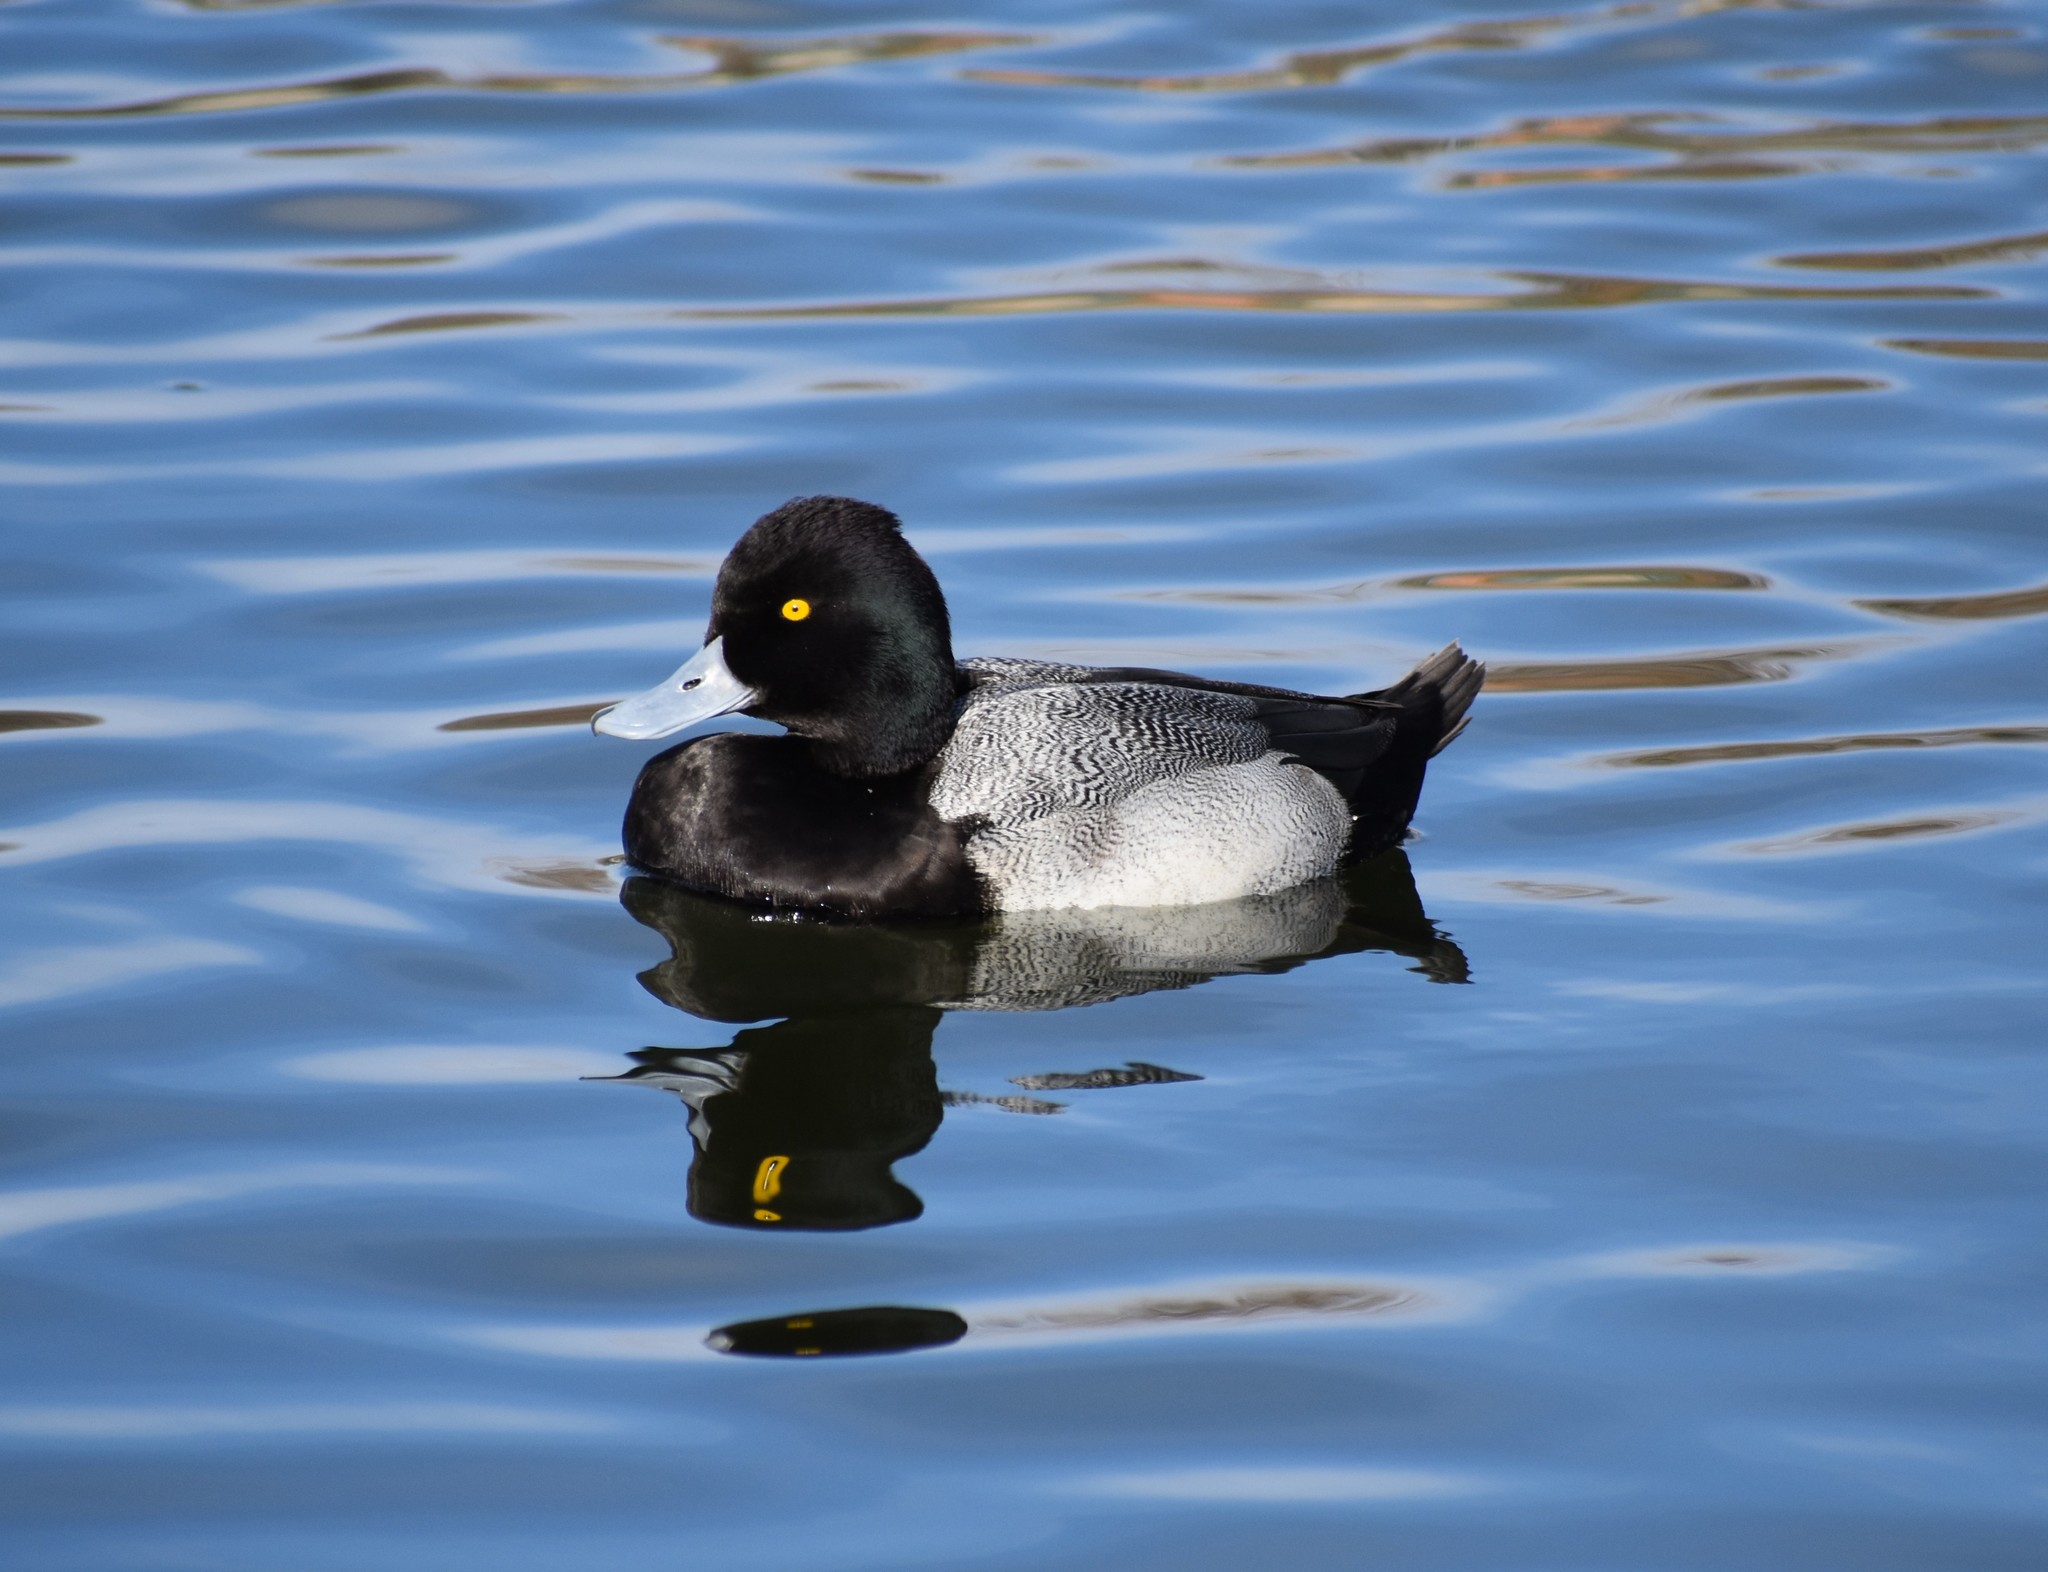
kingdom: Animalia
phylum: Chordata
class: Aves
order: Anseriformes
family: Anatidae
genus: Aythya
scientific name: Aythya affinis
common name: Lesser scaup
